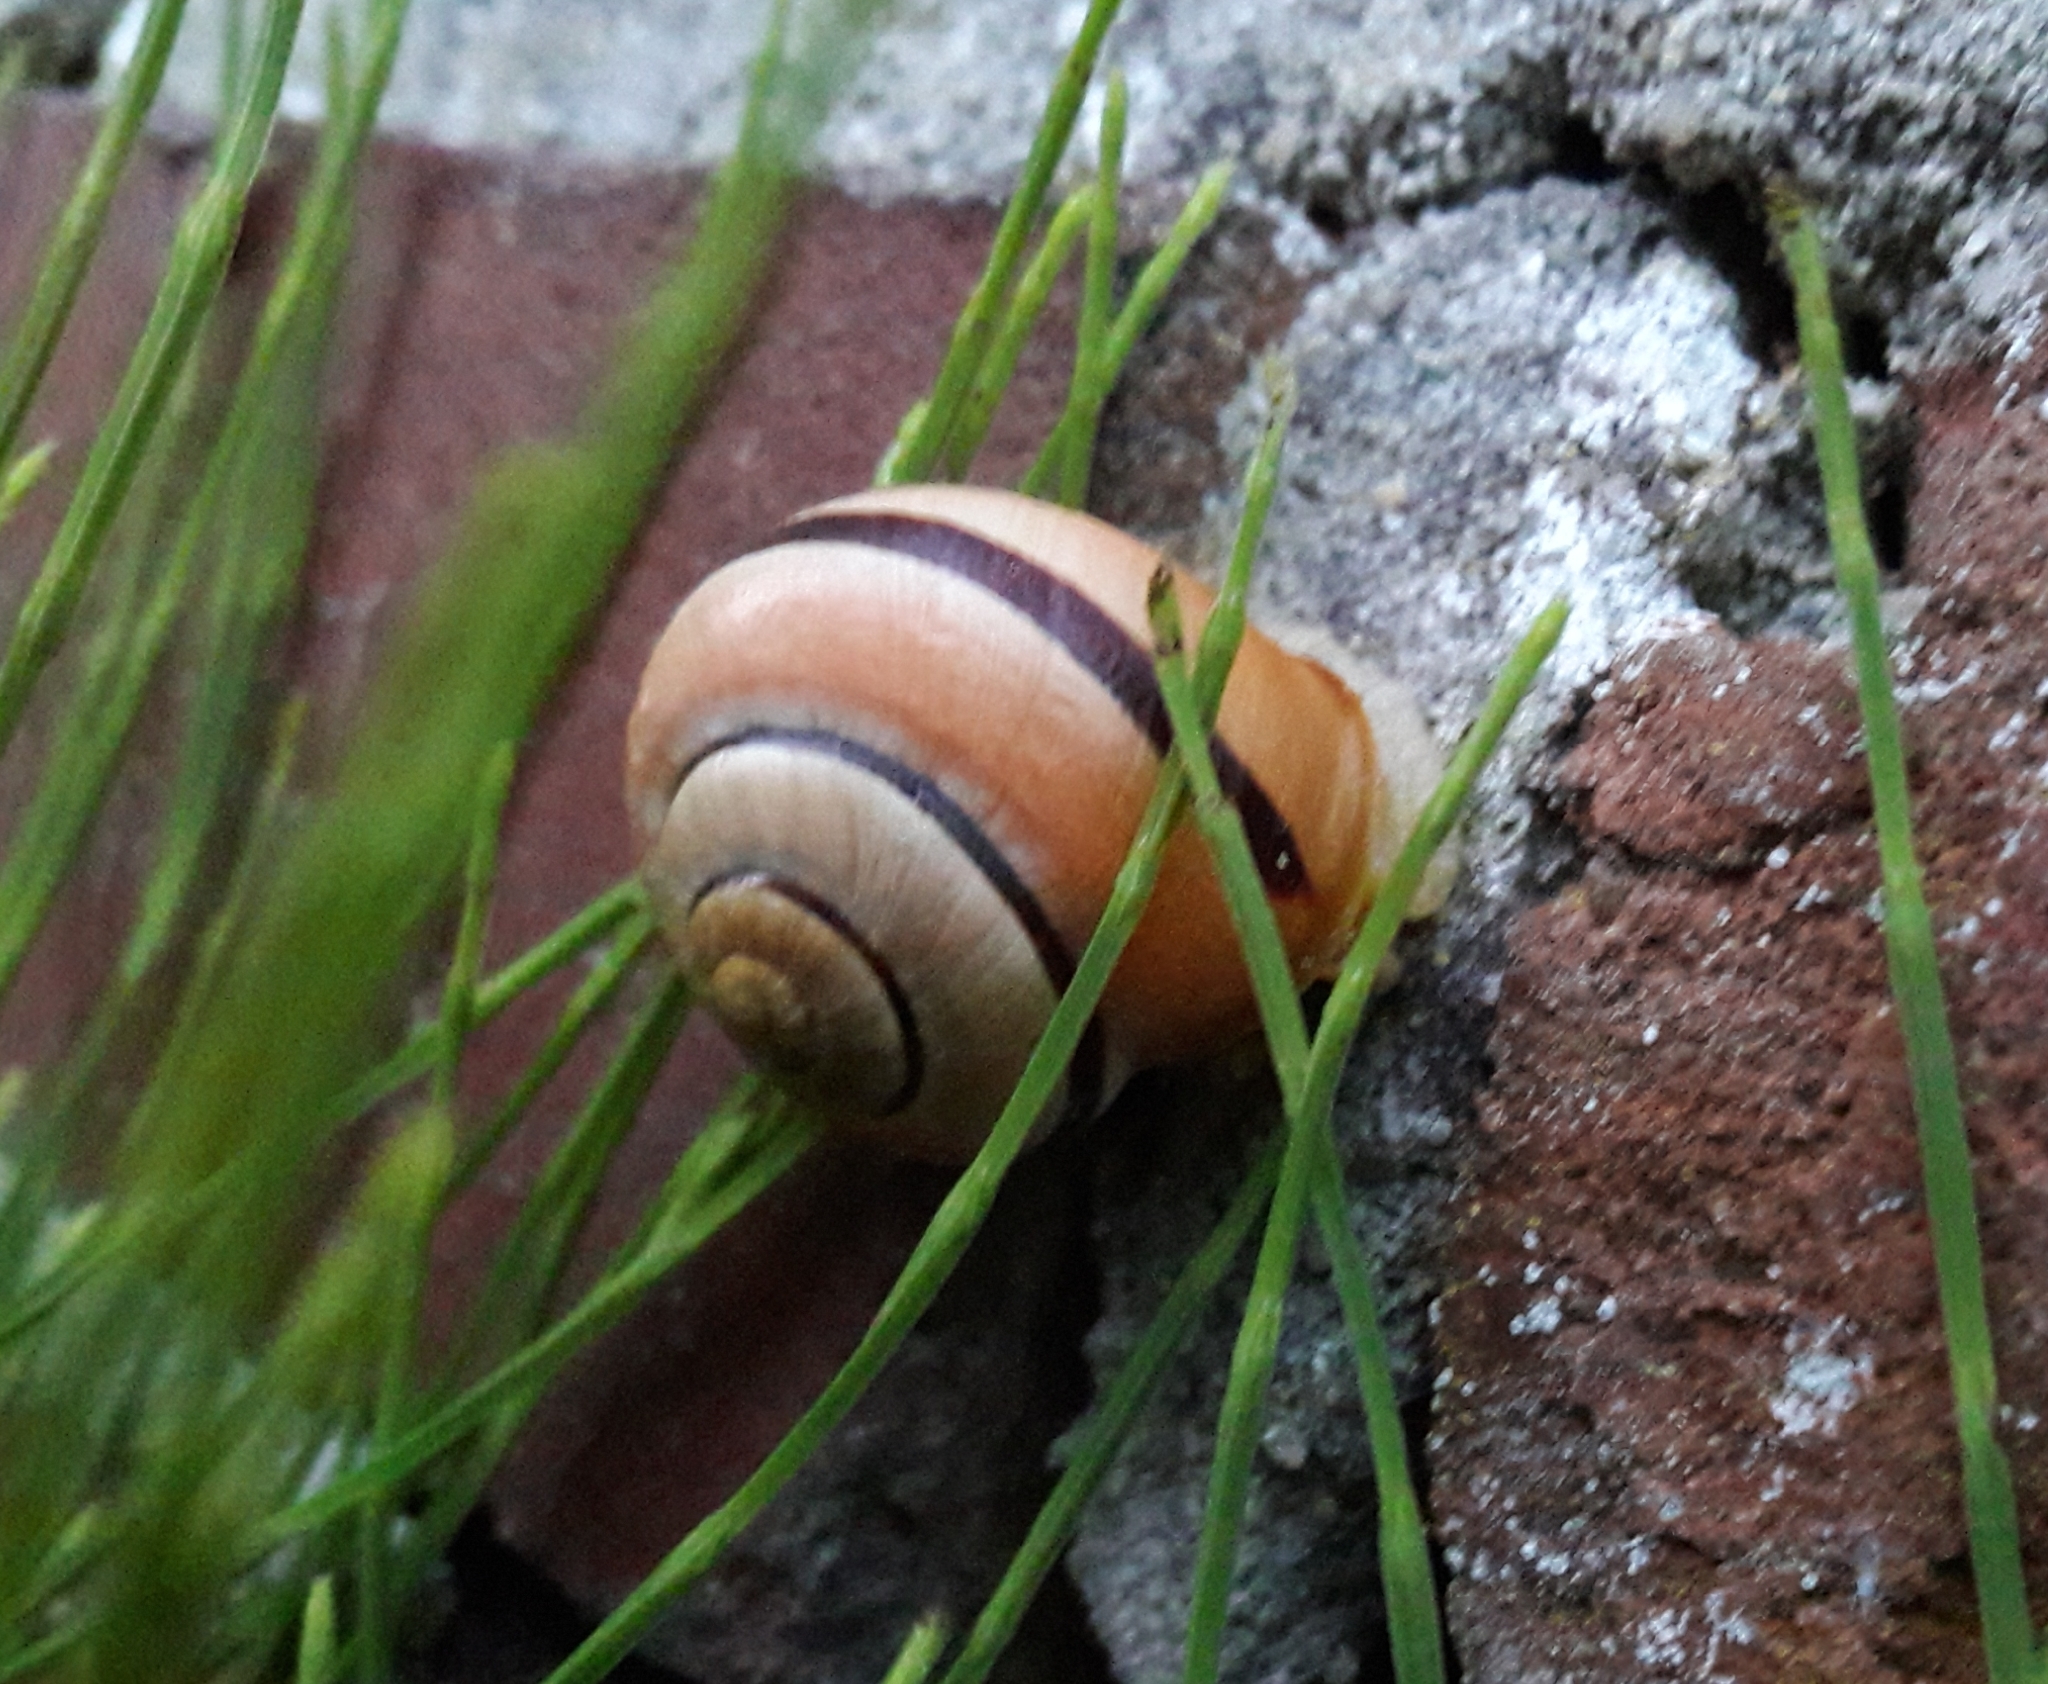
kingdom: Animalia
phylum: Mollusca
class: Gastropoda
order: Stylommatophora
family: Helicidae
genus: Cepaea
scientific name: Cepaea nemoralis
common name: Grovesnail
